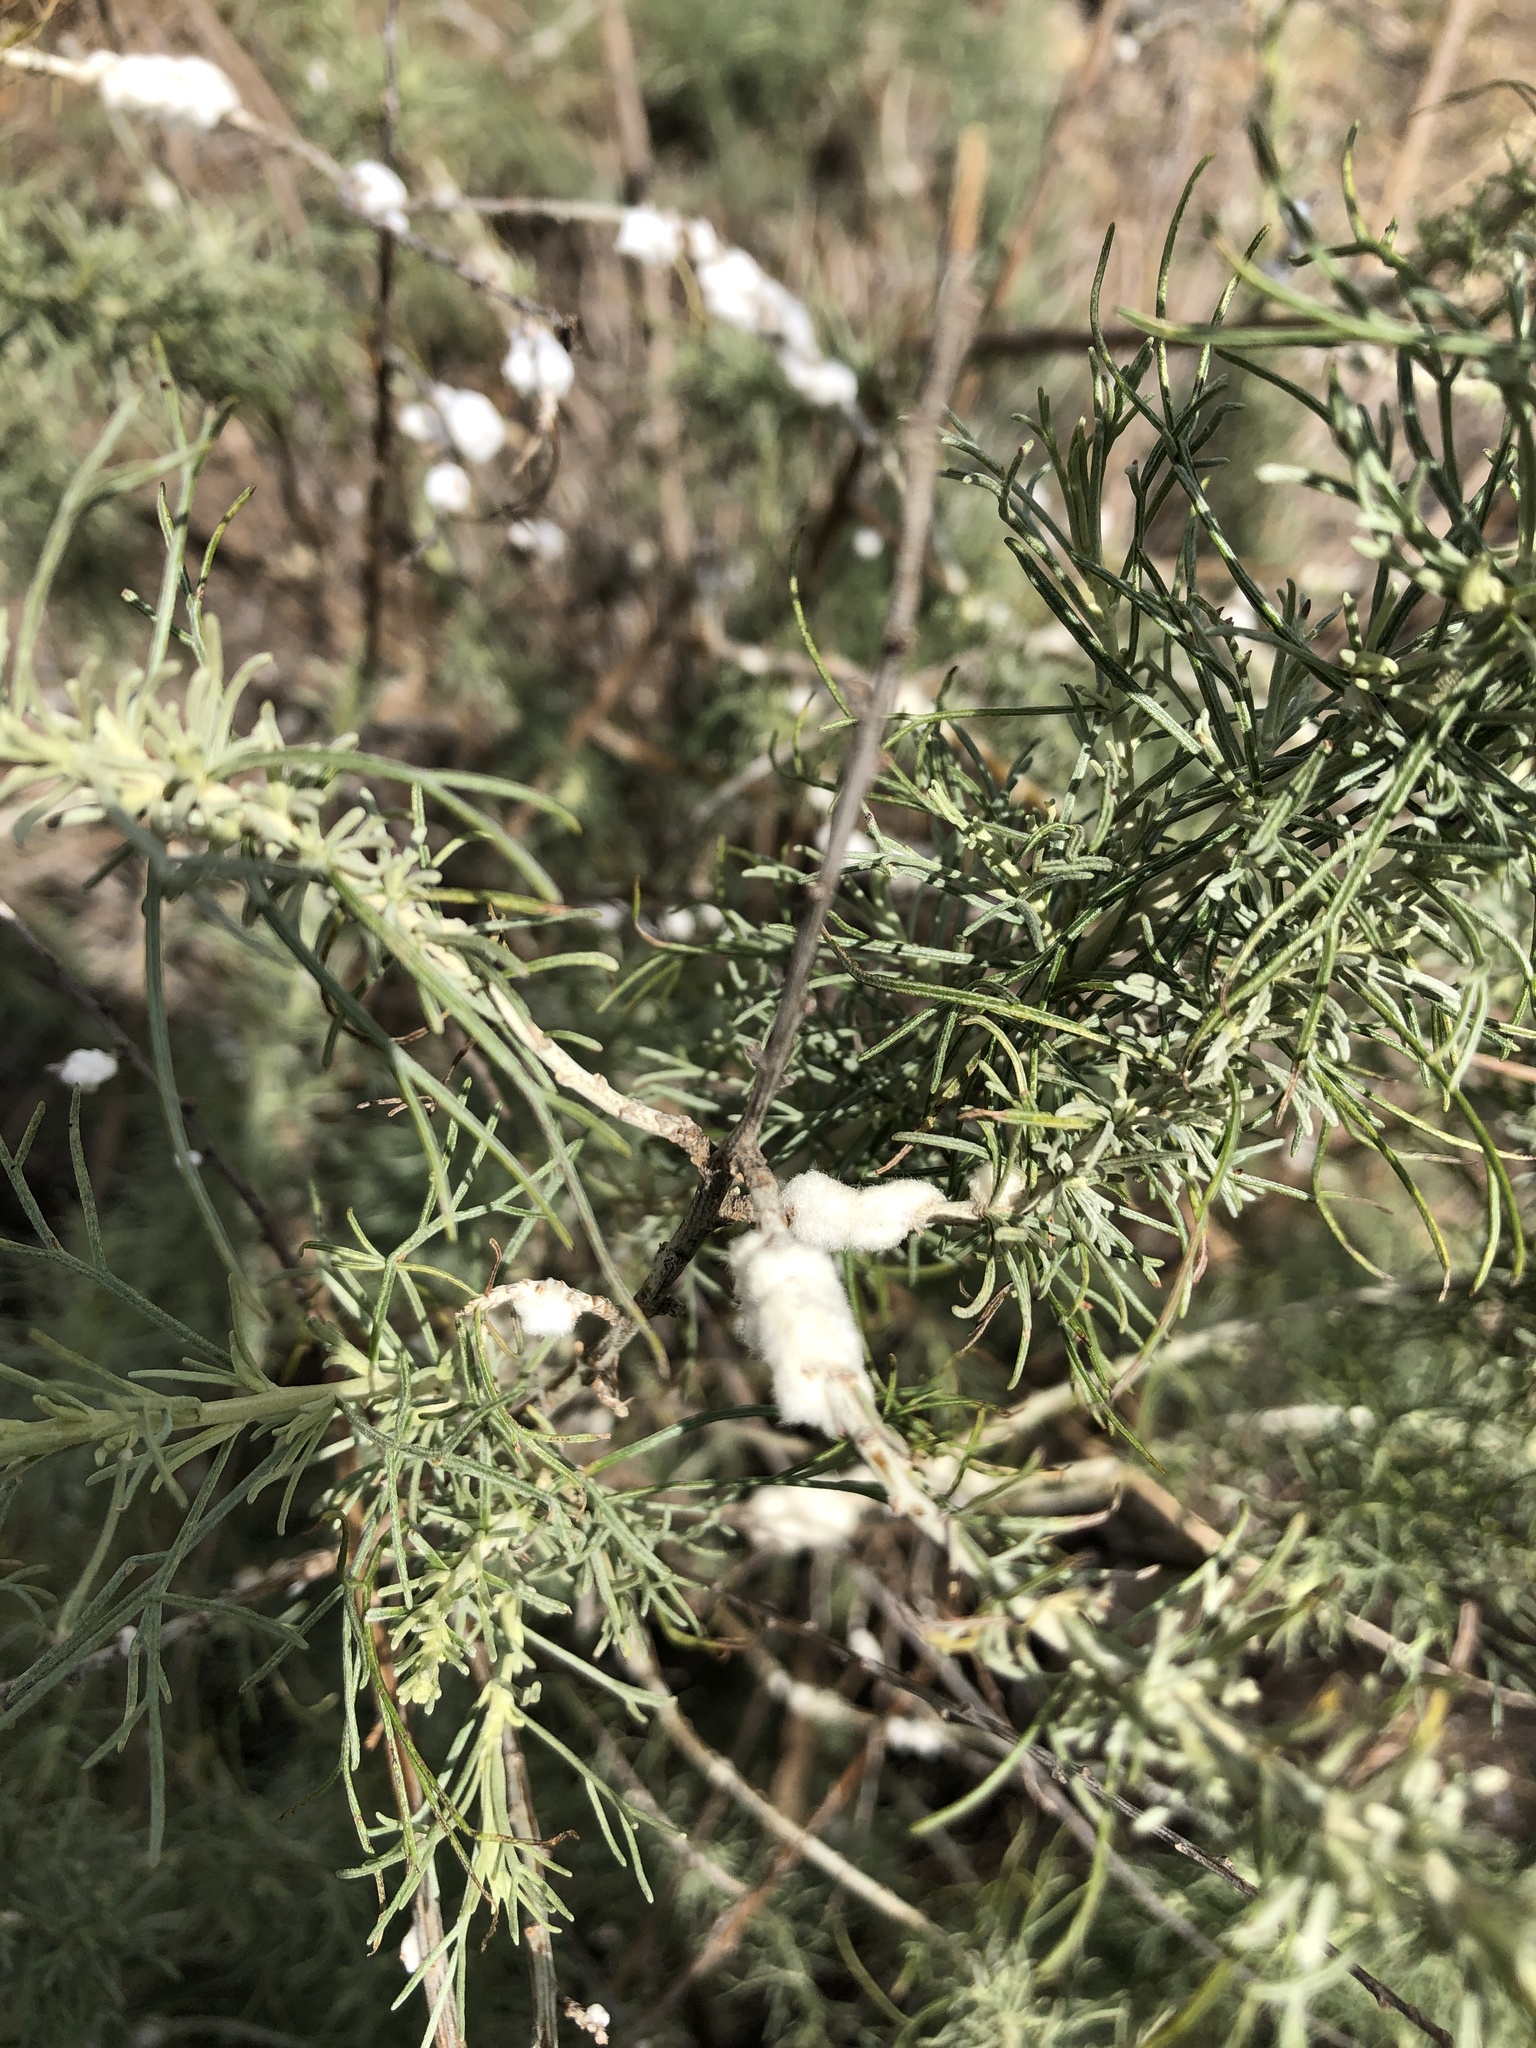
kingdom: Animalia
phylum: Arthropoda
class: Insecta
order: Diptera
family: Cecidomyiidae
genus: Rhopalomyia
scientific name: Rhopalomyia floccosa
